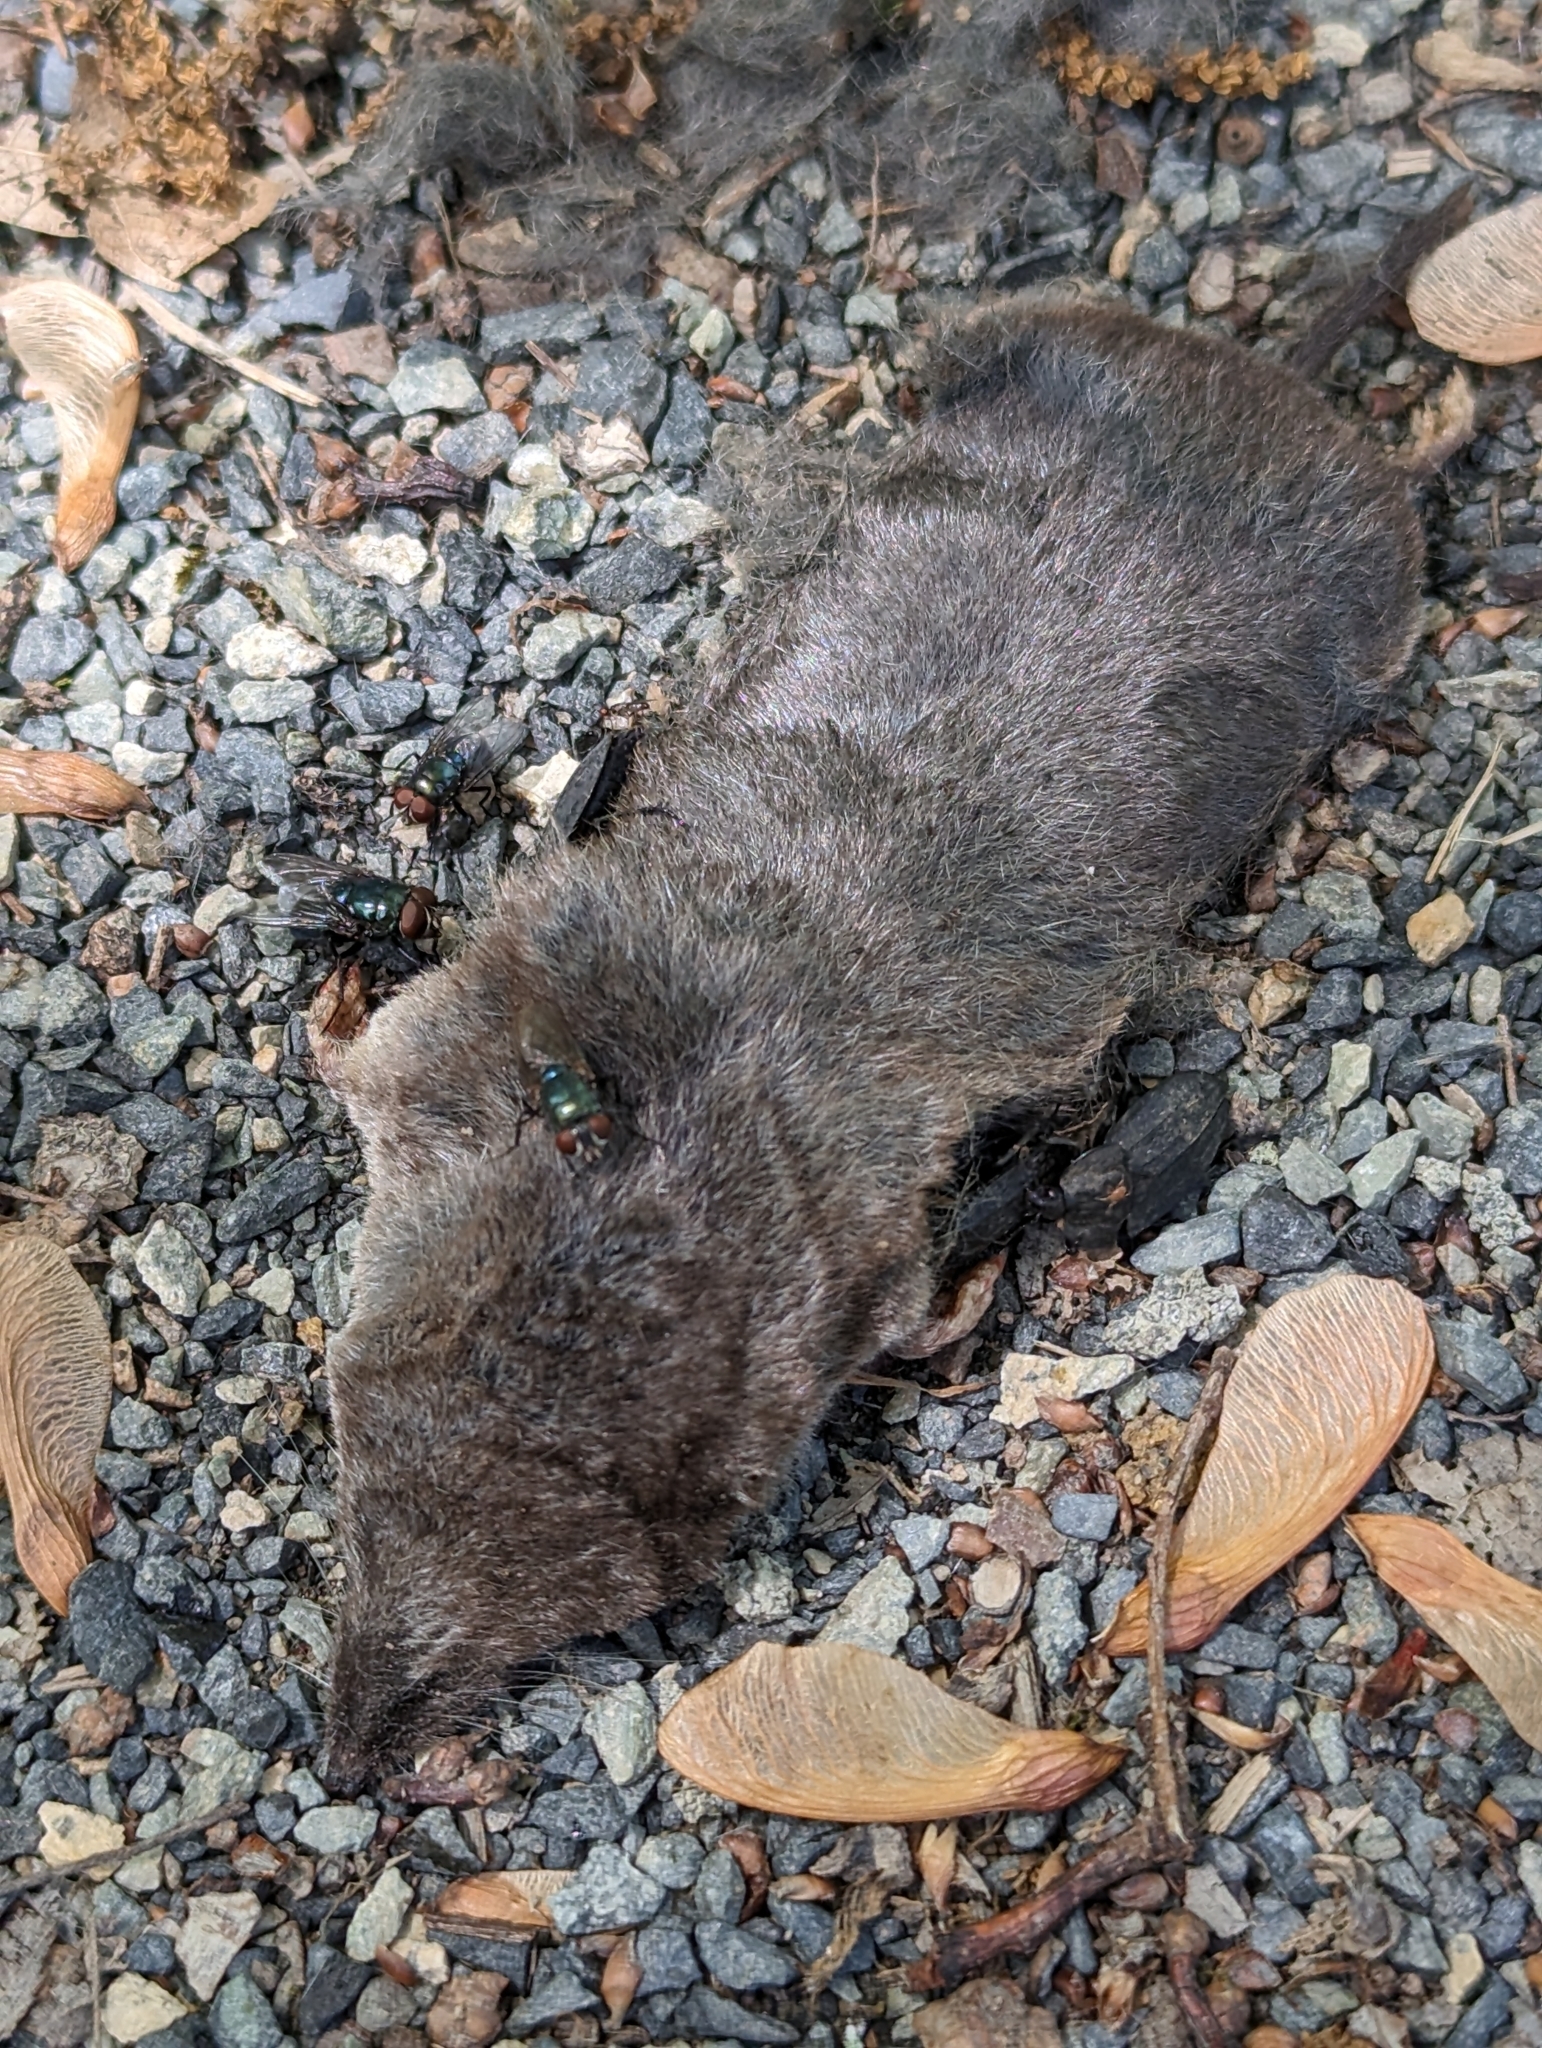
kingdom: Animalia
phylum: Arthropoda
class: Insecta
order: Coleoptera
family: Staphylinidae
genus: Oiceoptoma
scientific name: Oiceoptoma inaequale
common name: Ridged carrion beetle
